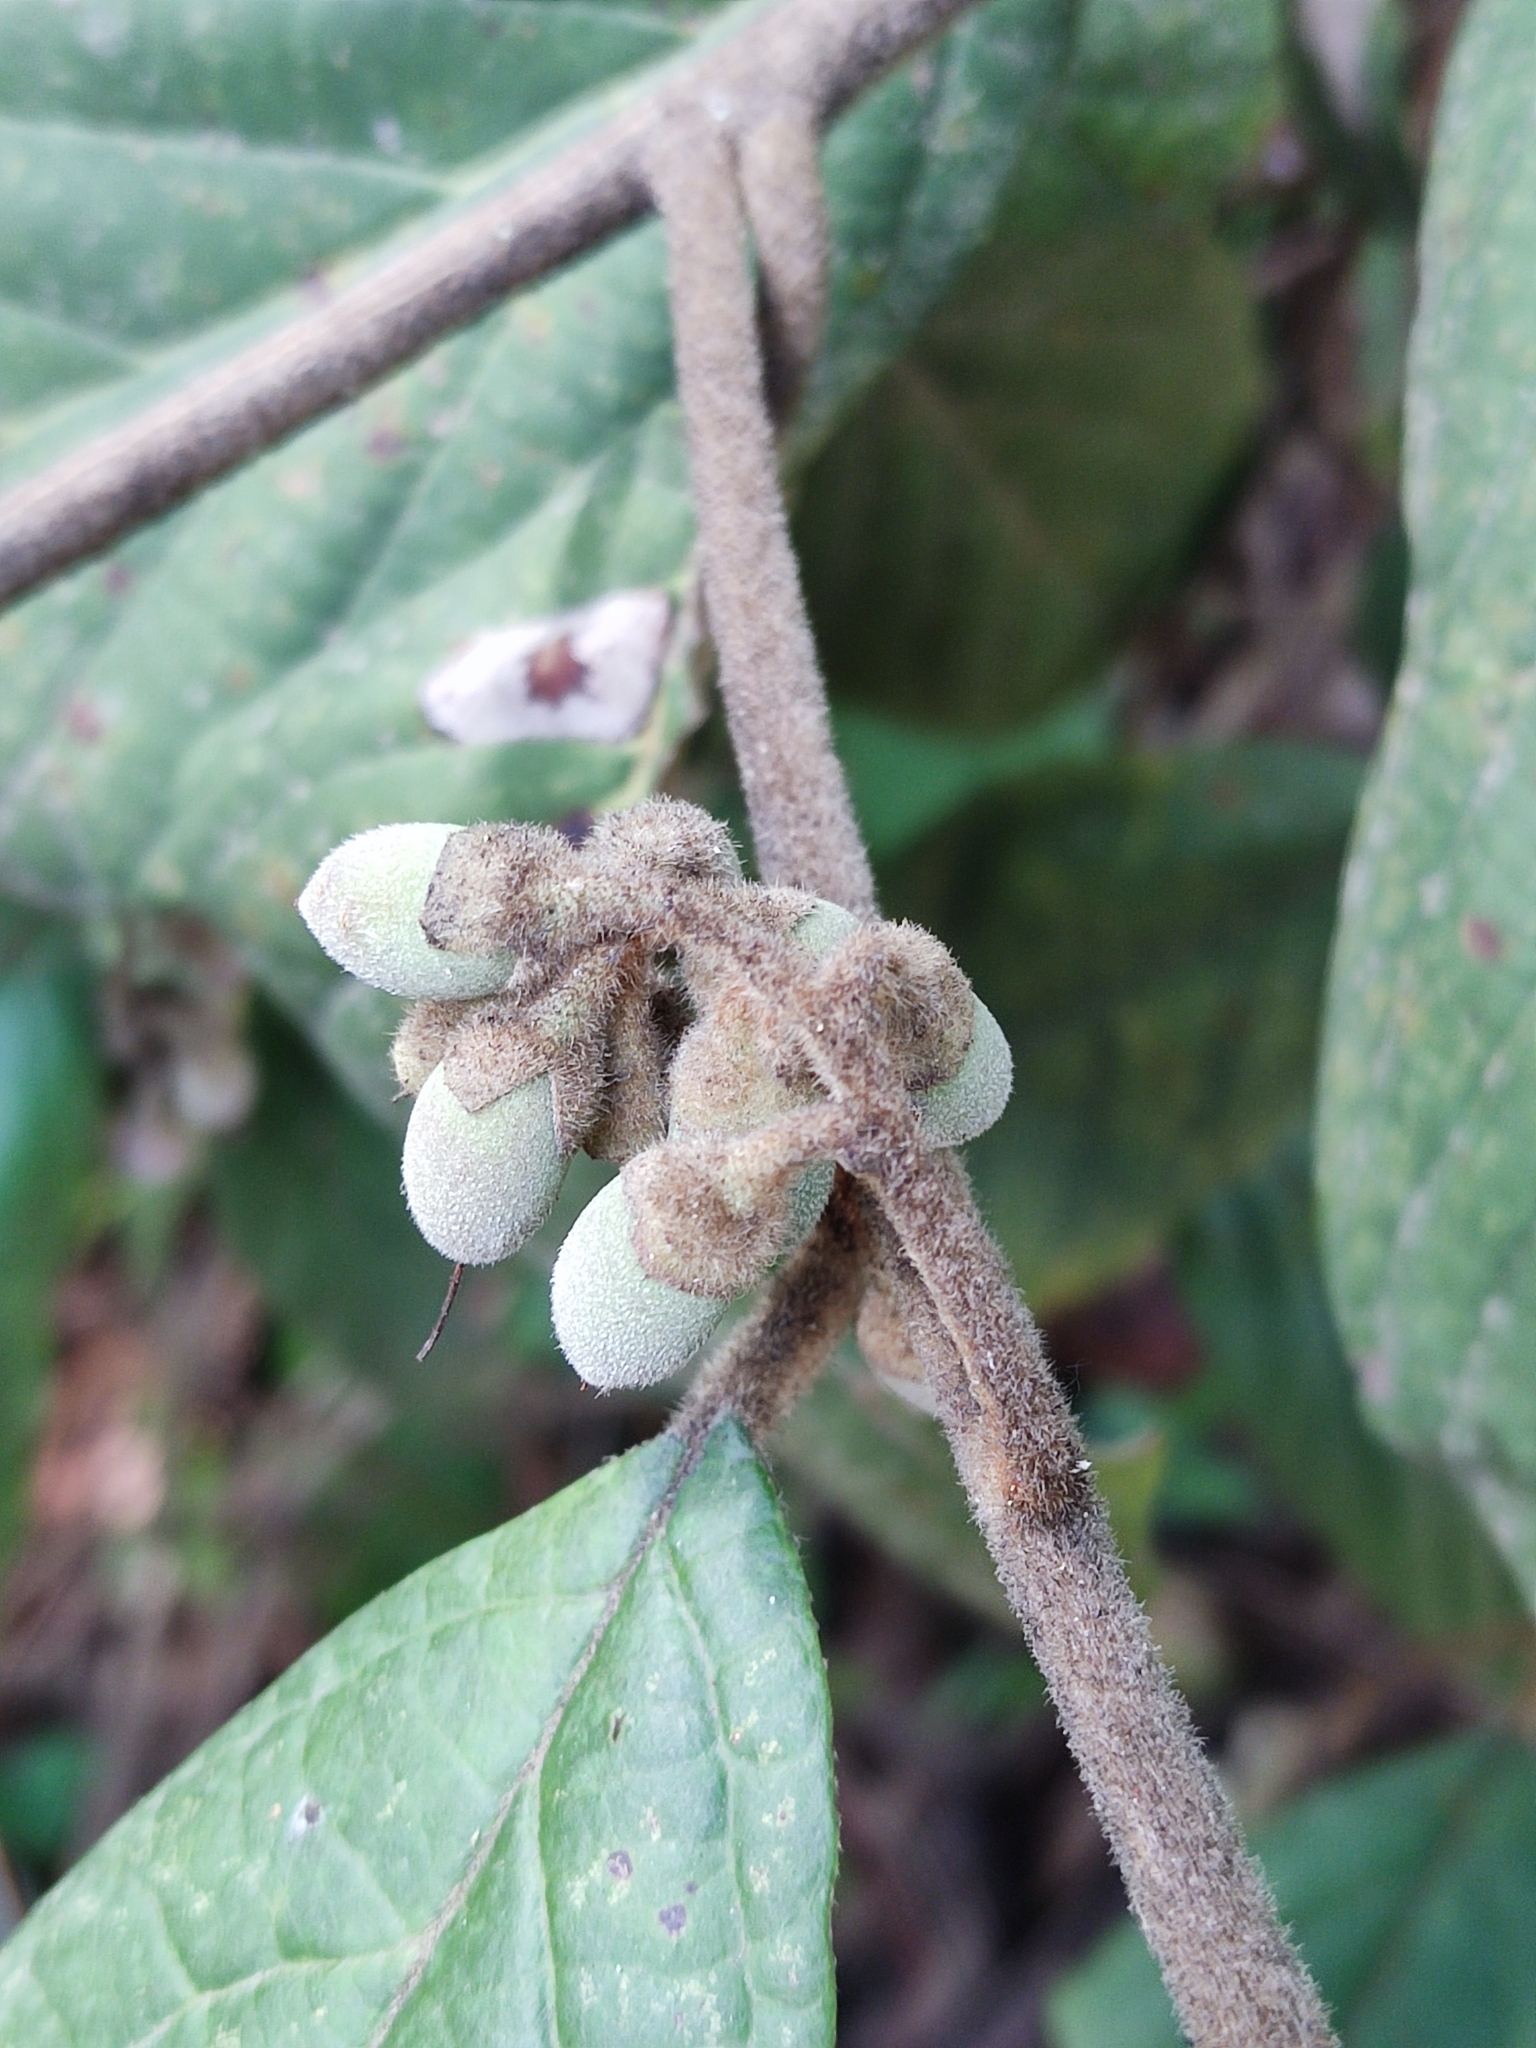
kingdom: Plantae
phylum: Tracheophyta
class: Magnoliopsida
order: Ericales
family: Styracaceae
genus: Styrax
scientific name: Styrax argenteus
